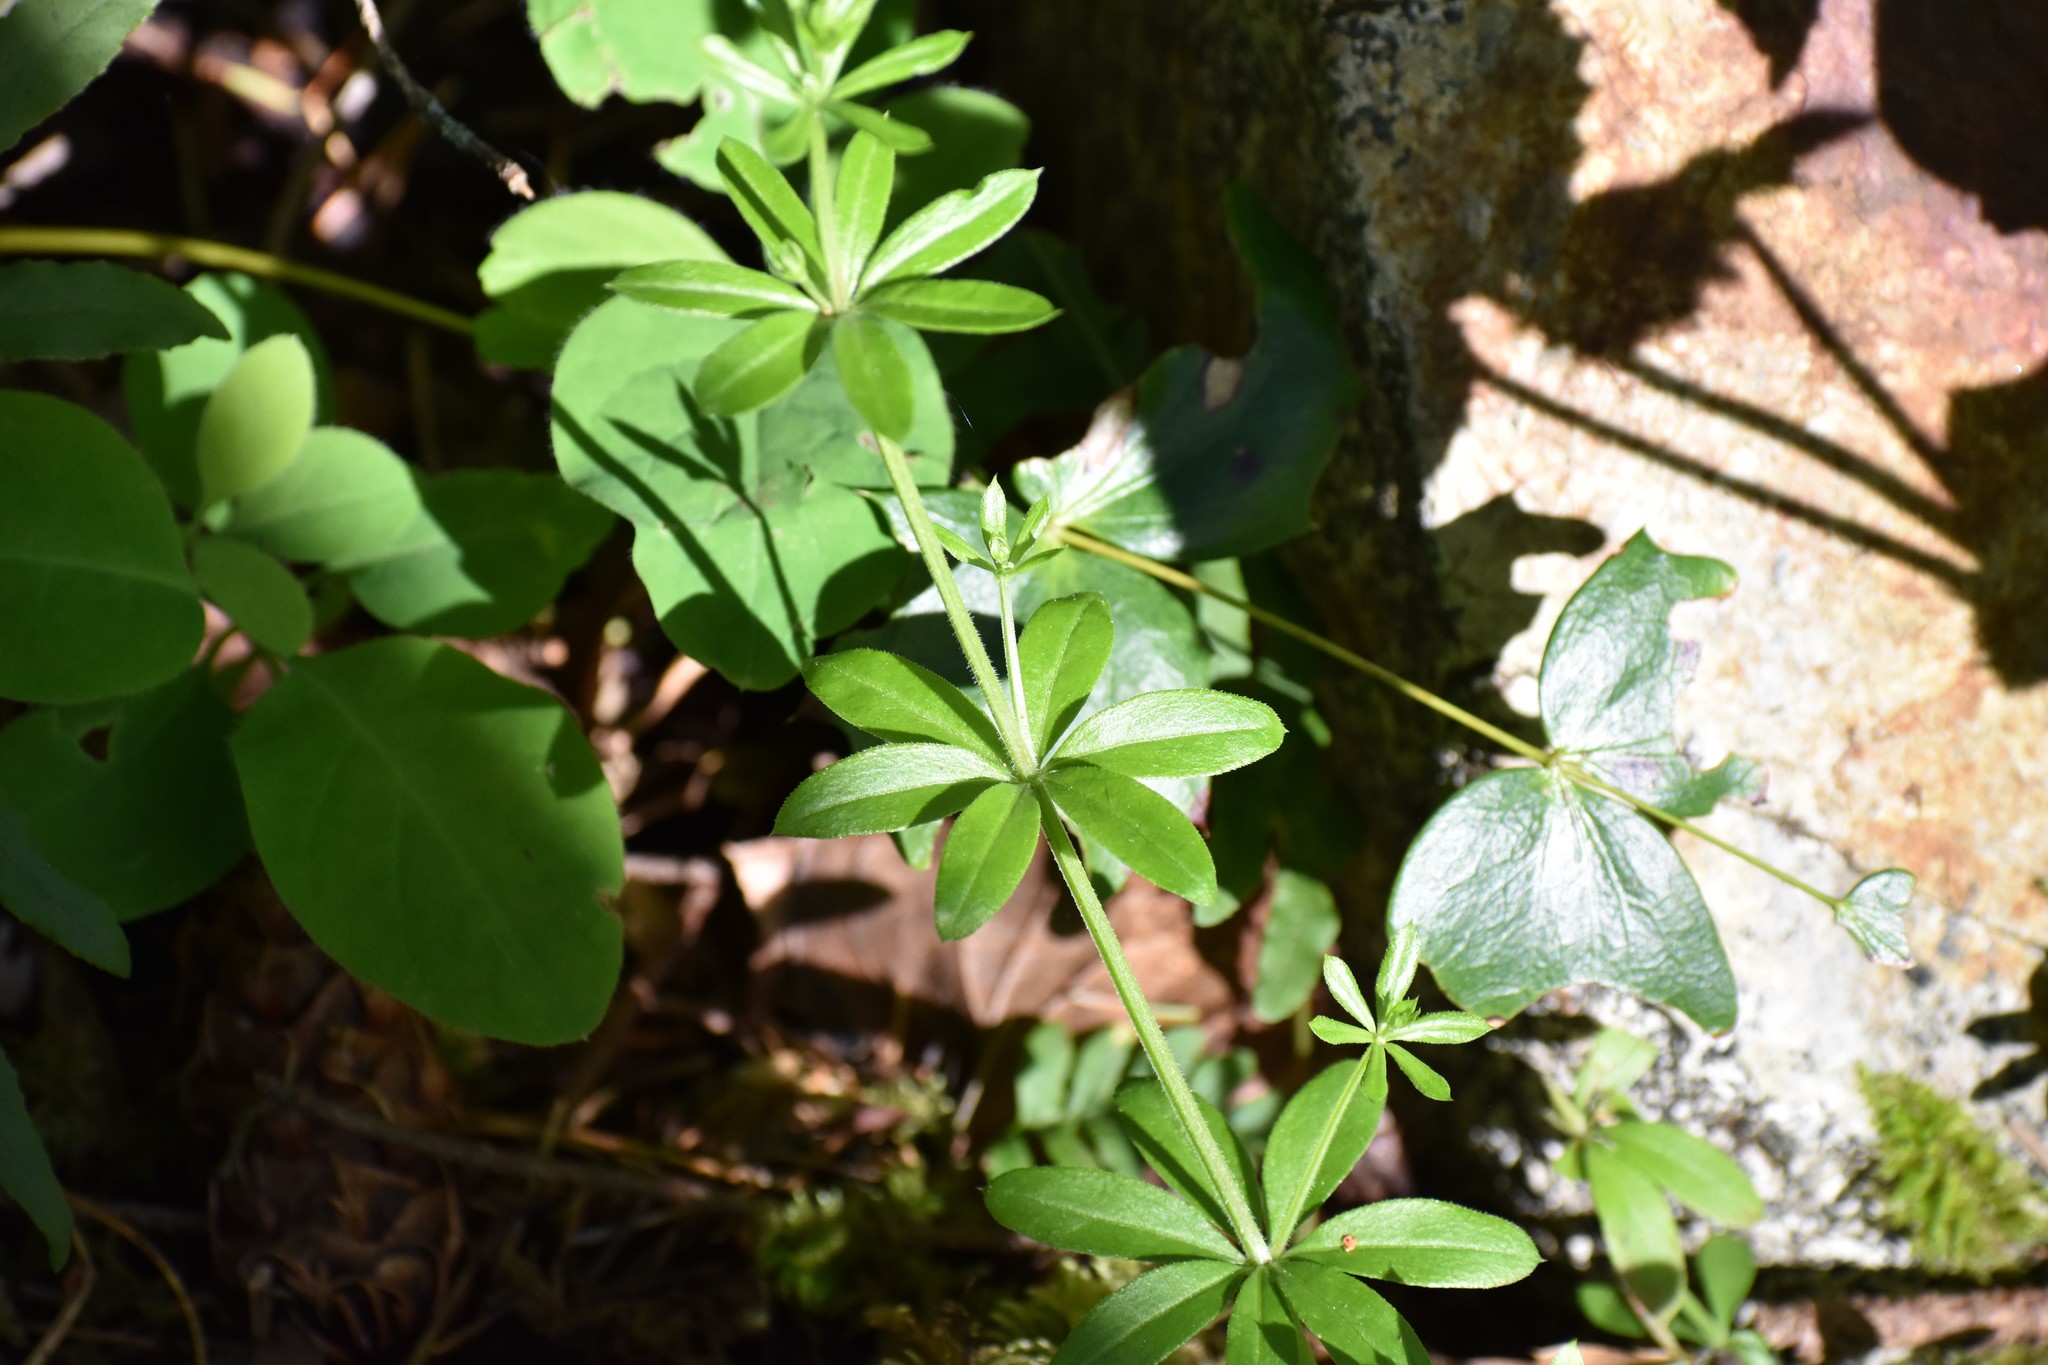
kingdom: Plantae
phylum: Tracheophyta
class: Magnoliopsida
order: Gentianales
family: Rubiaceae
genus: Galium
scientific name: Galium triflorum
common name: Fragrant bedstraw
